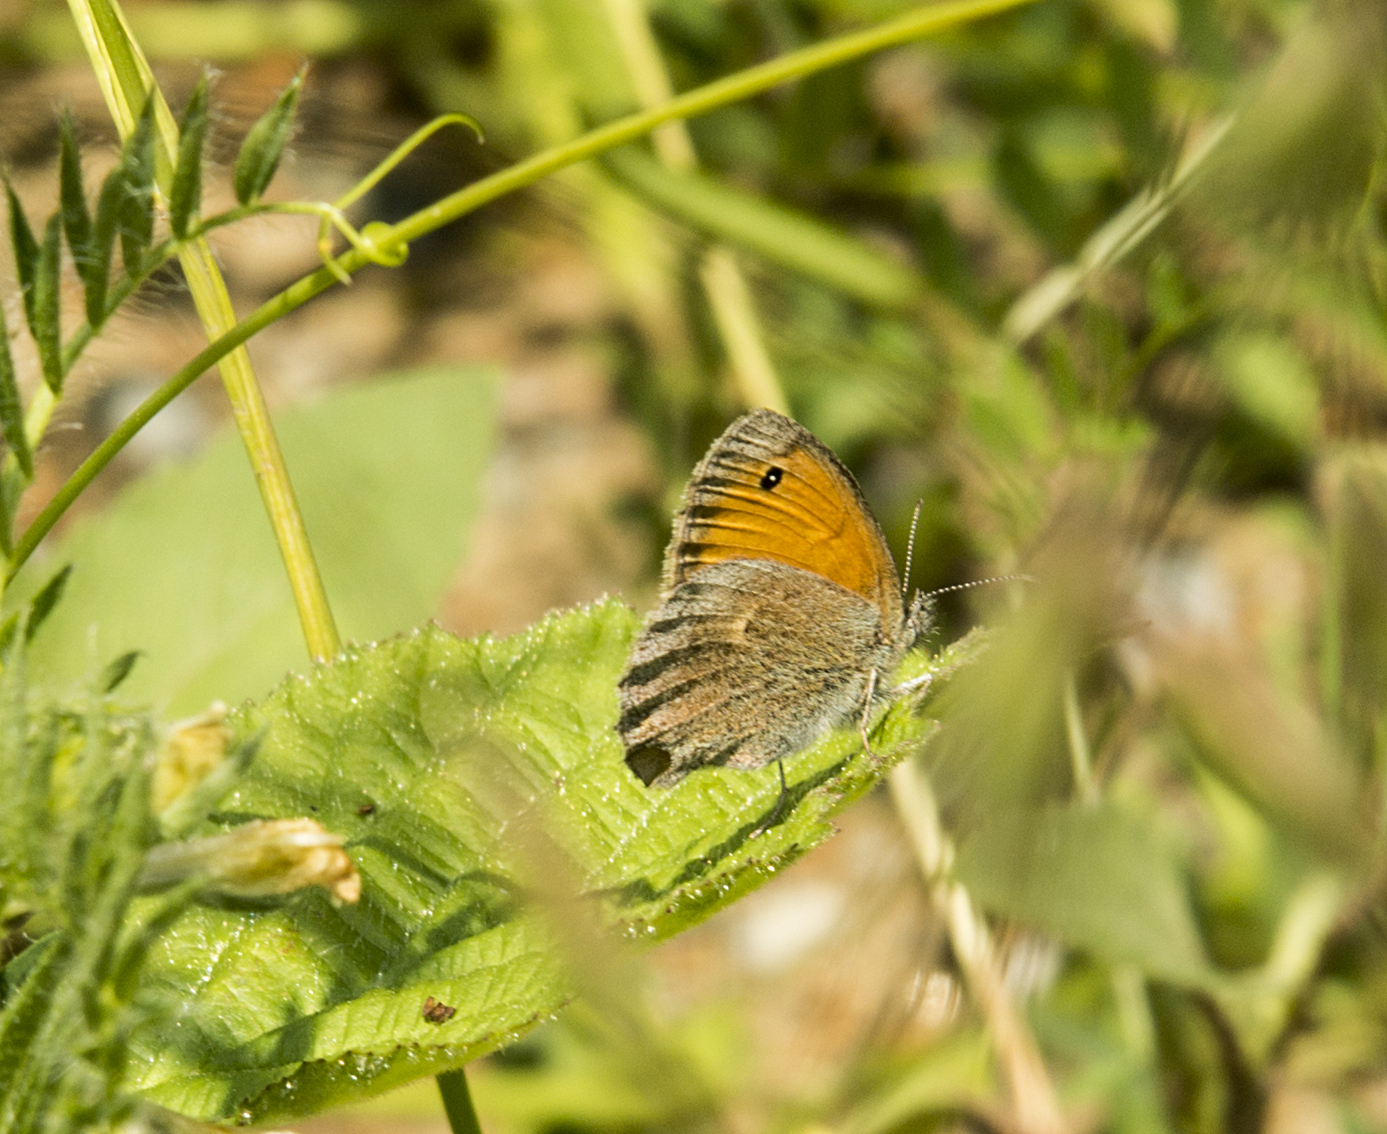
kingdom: Animalia
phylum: Arthropoda
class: Insecta
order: Lepidoptera
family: Nymphalidae
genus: Coenonympha
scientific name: Coenonympha pamphilus
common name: Small heath
